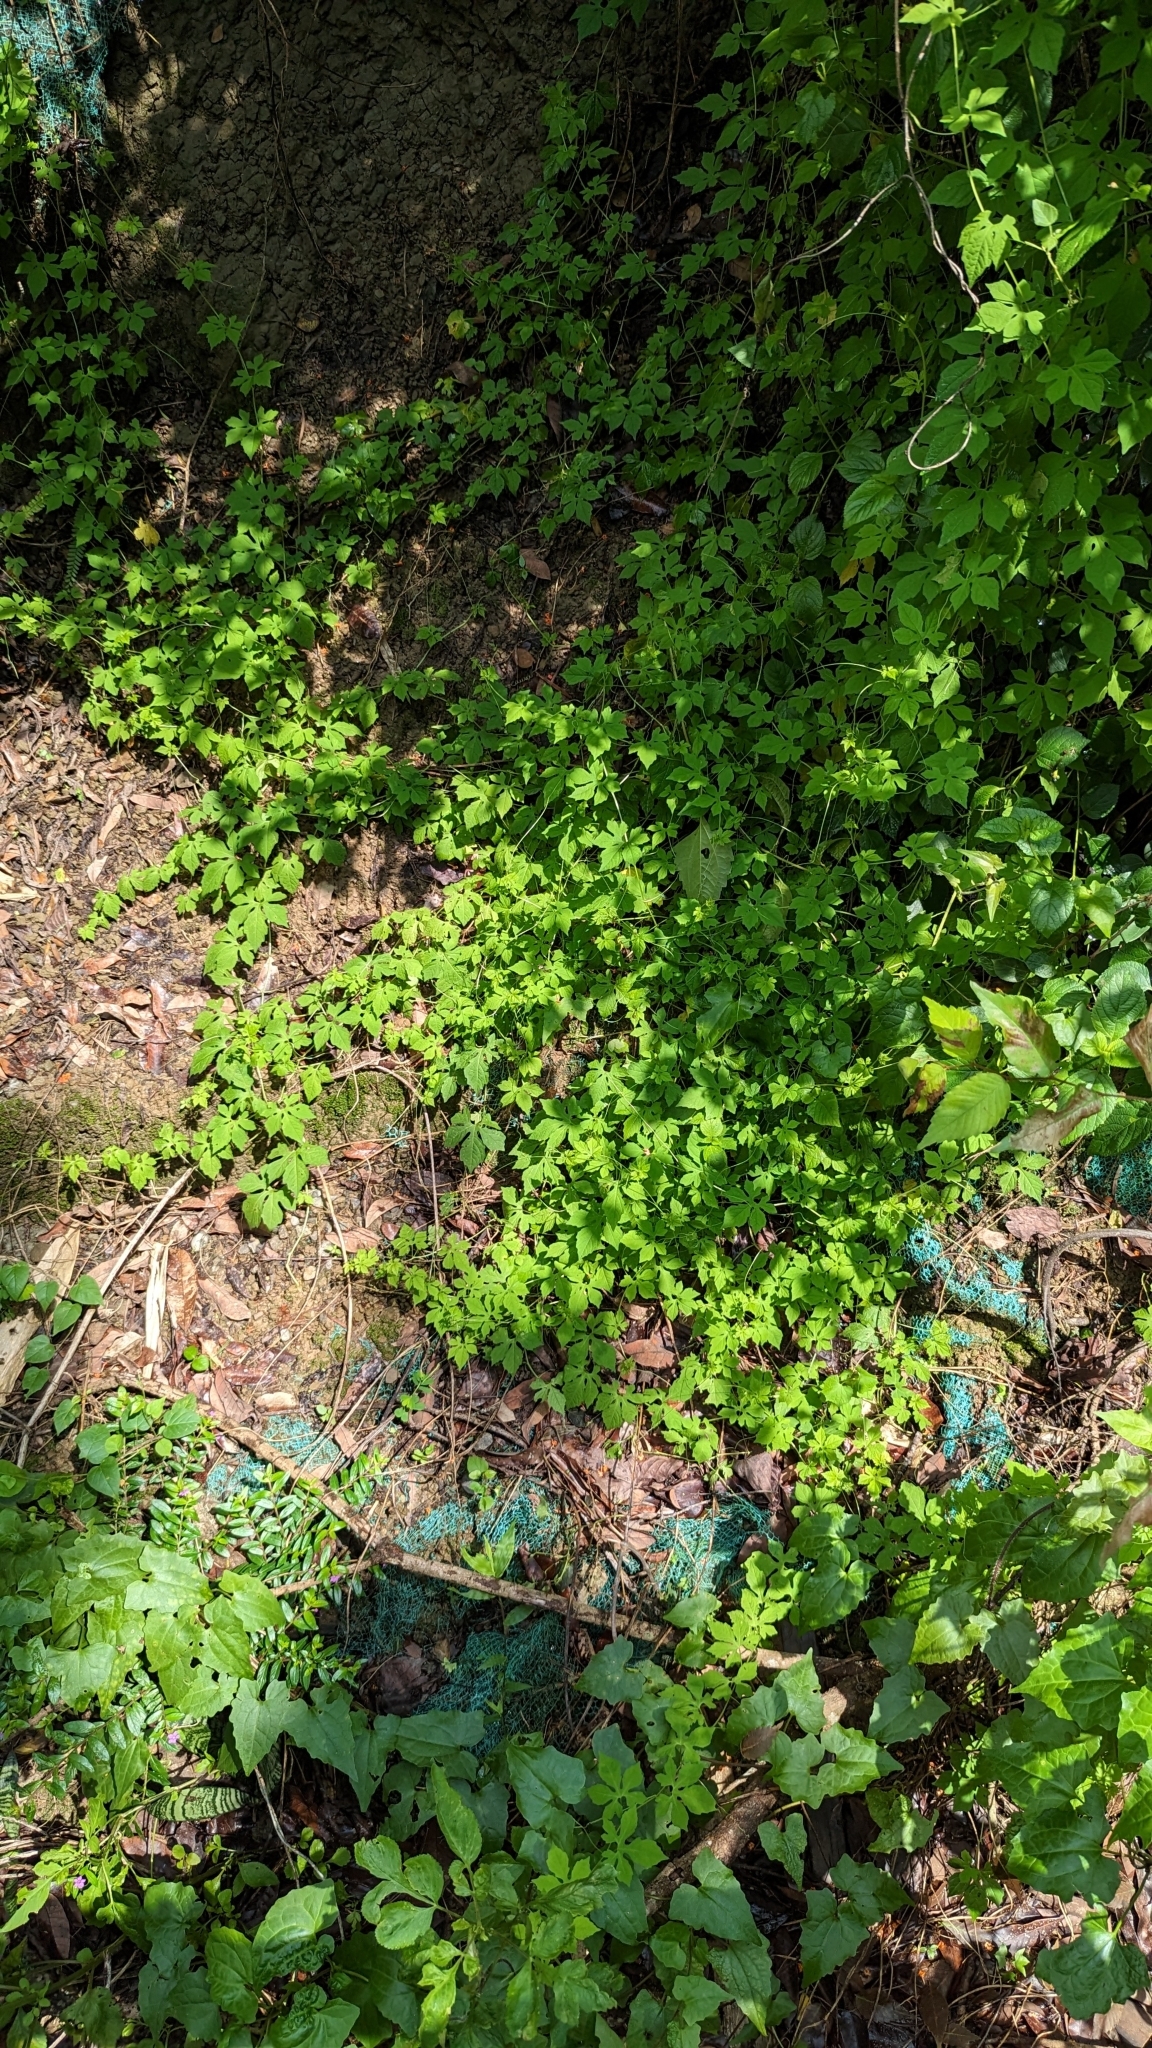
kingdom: Plantae
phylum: Tracheophyta
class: Magnoliopsida
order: Cucurbitales
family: Cucurbitaceae
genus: Momordica
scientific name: Momordica charantia
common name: Balsampear
